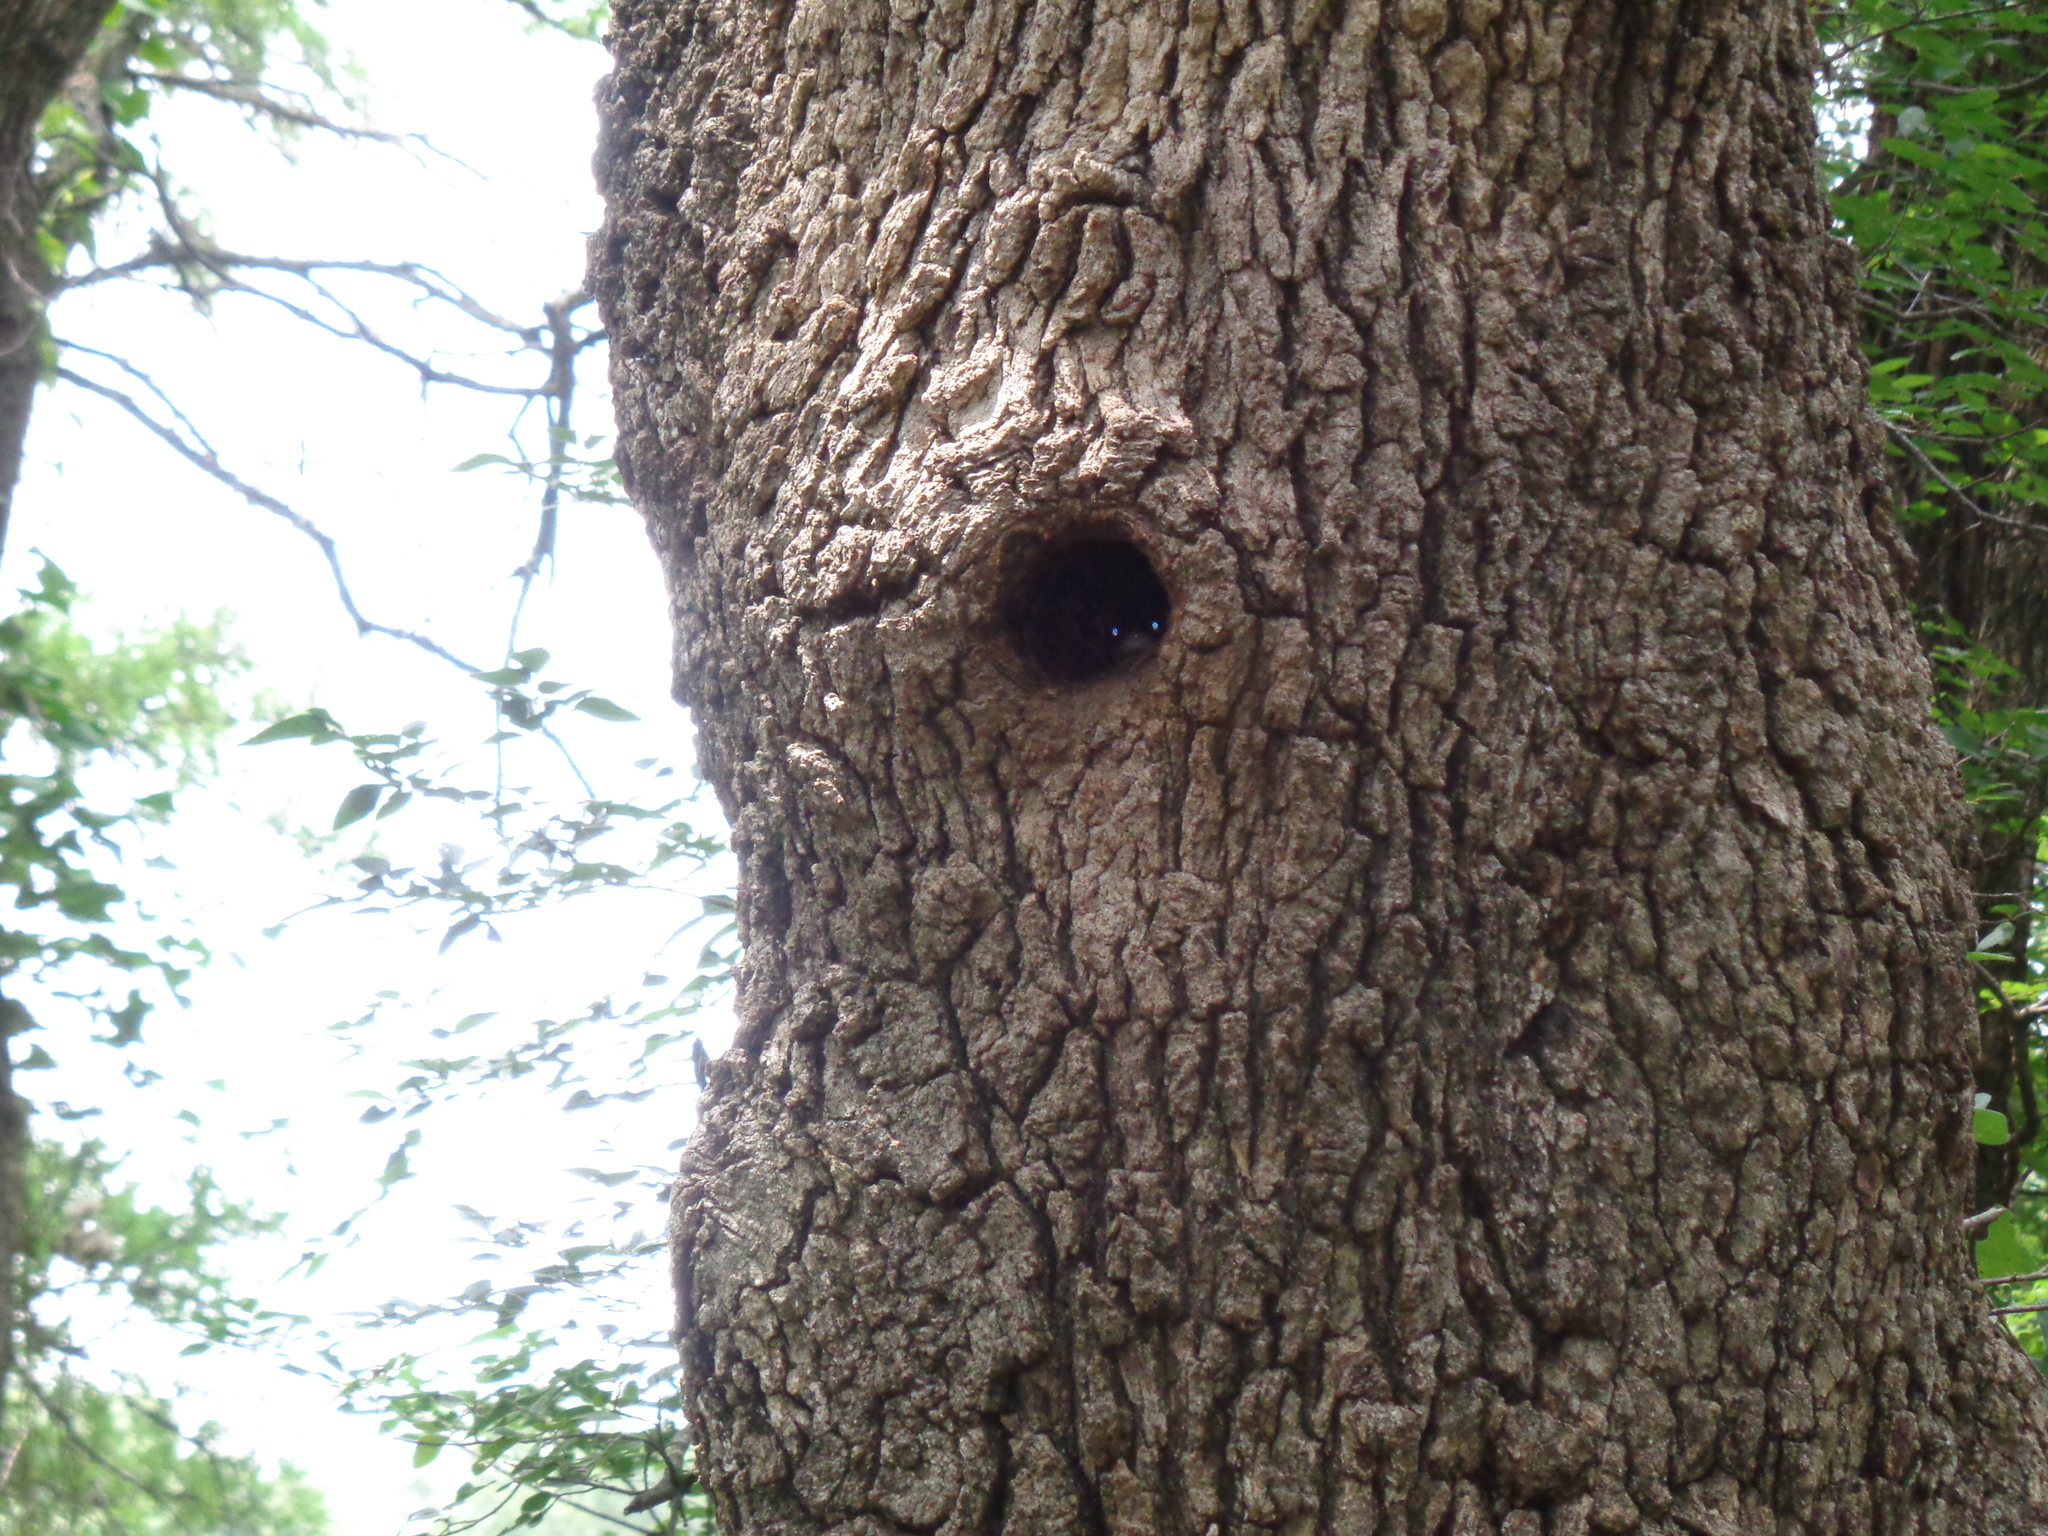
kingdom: Animalia
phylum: Chordata
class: Squamata
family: Colubridae
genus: Pantherophis
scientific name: Pantherophis obsoletus
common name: Black rat snake
